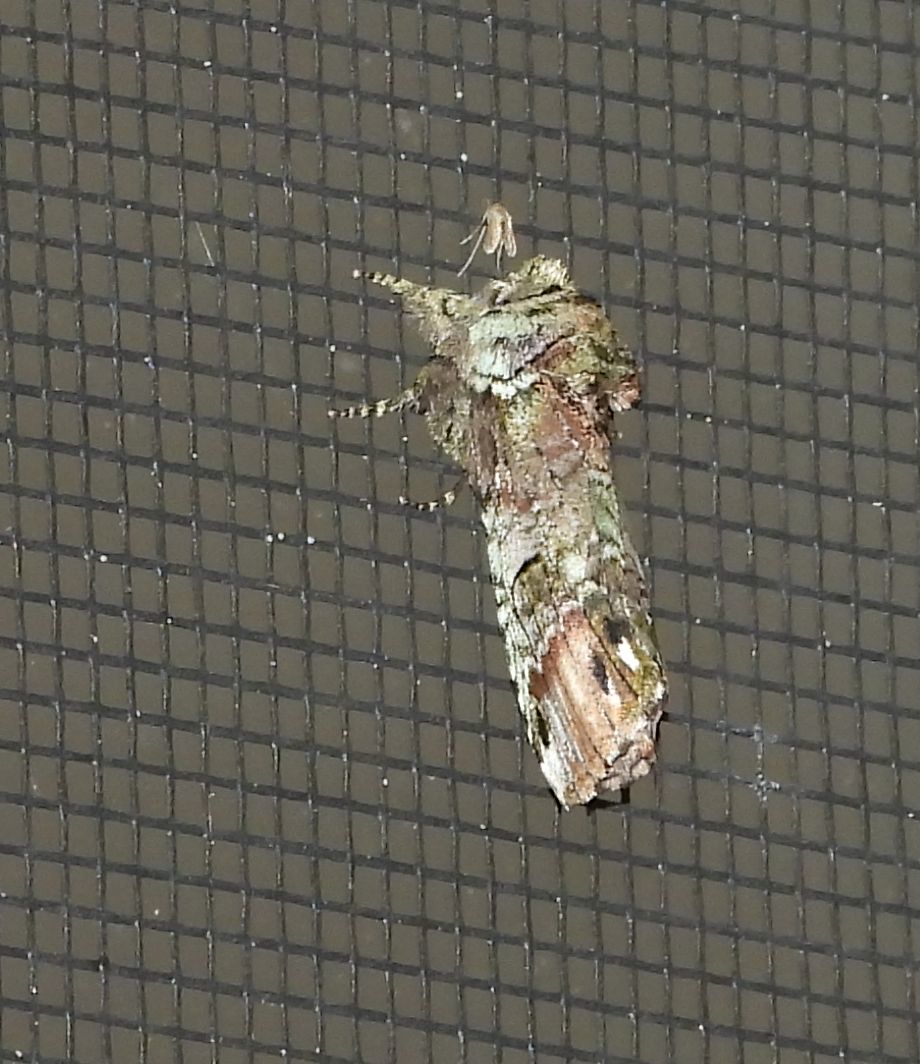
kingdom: Animalia
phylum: Arthropoda
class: Insecta
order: Lepidoptera
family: Notodontidae
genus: Schizura
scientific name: Schizura
